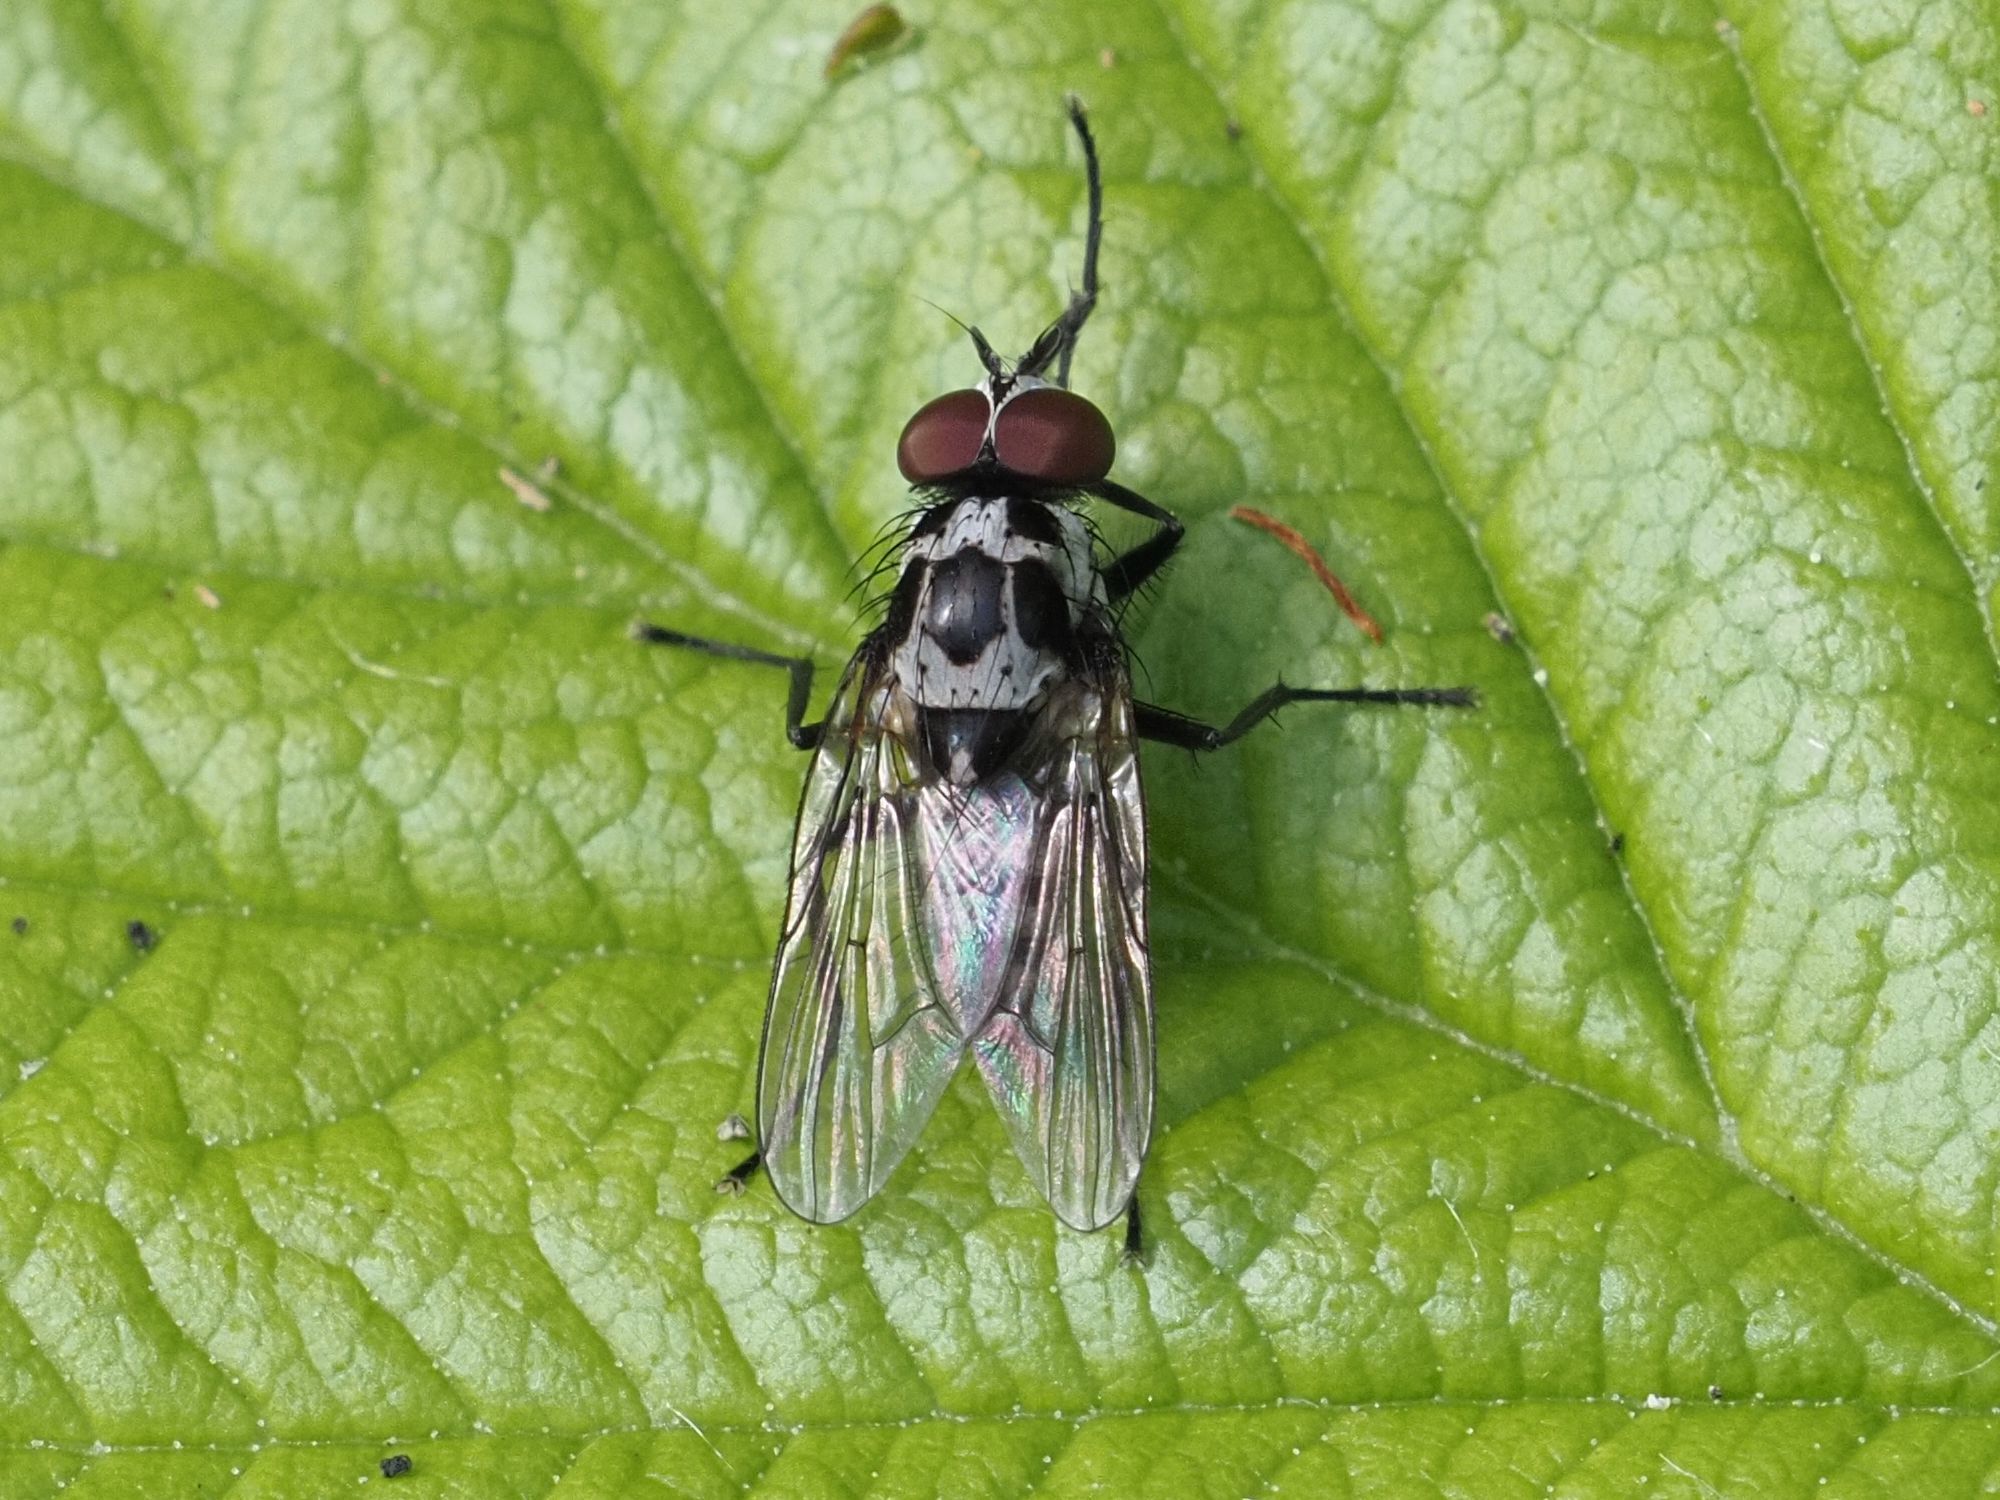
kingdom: Animalia
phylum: Arthropoda
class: Insecta
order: Diptera
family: Anthomyiidae
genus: Anthomyia
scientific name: Anthomyia procellaris
